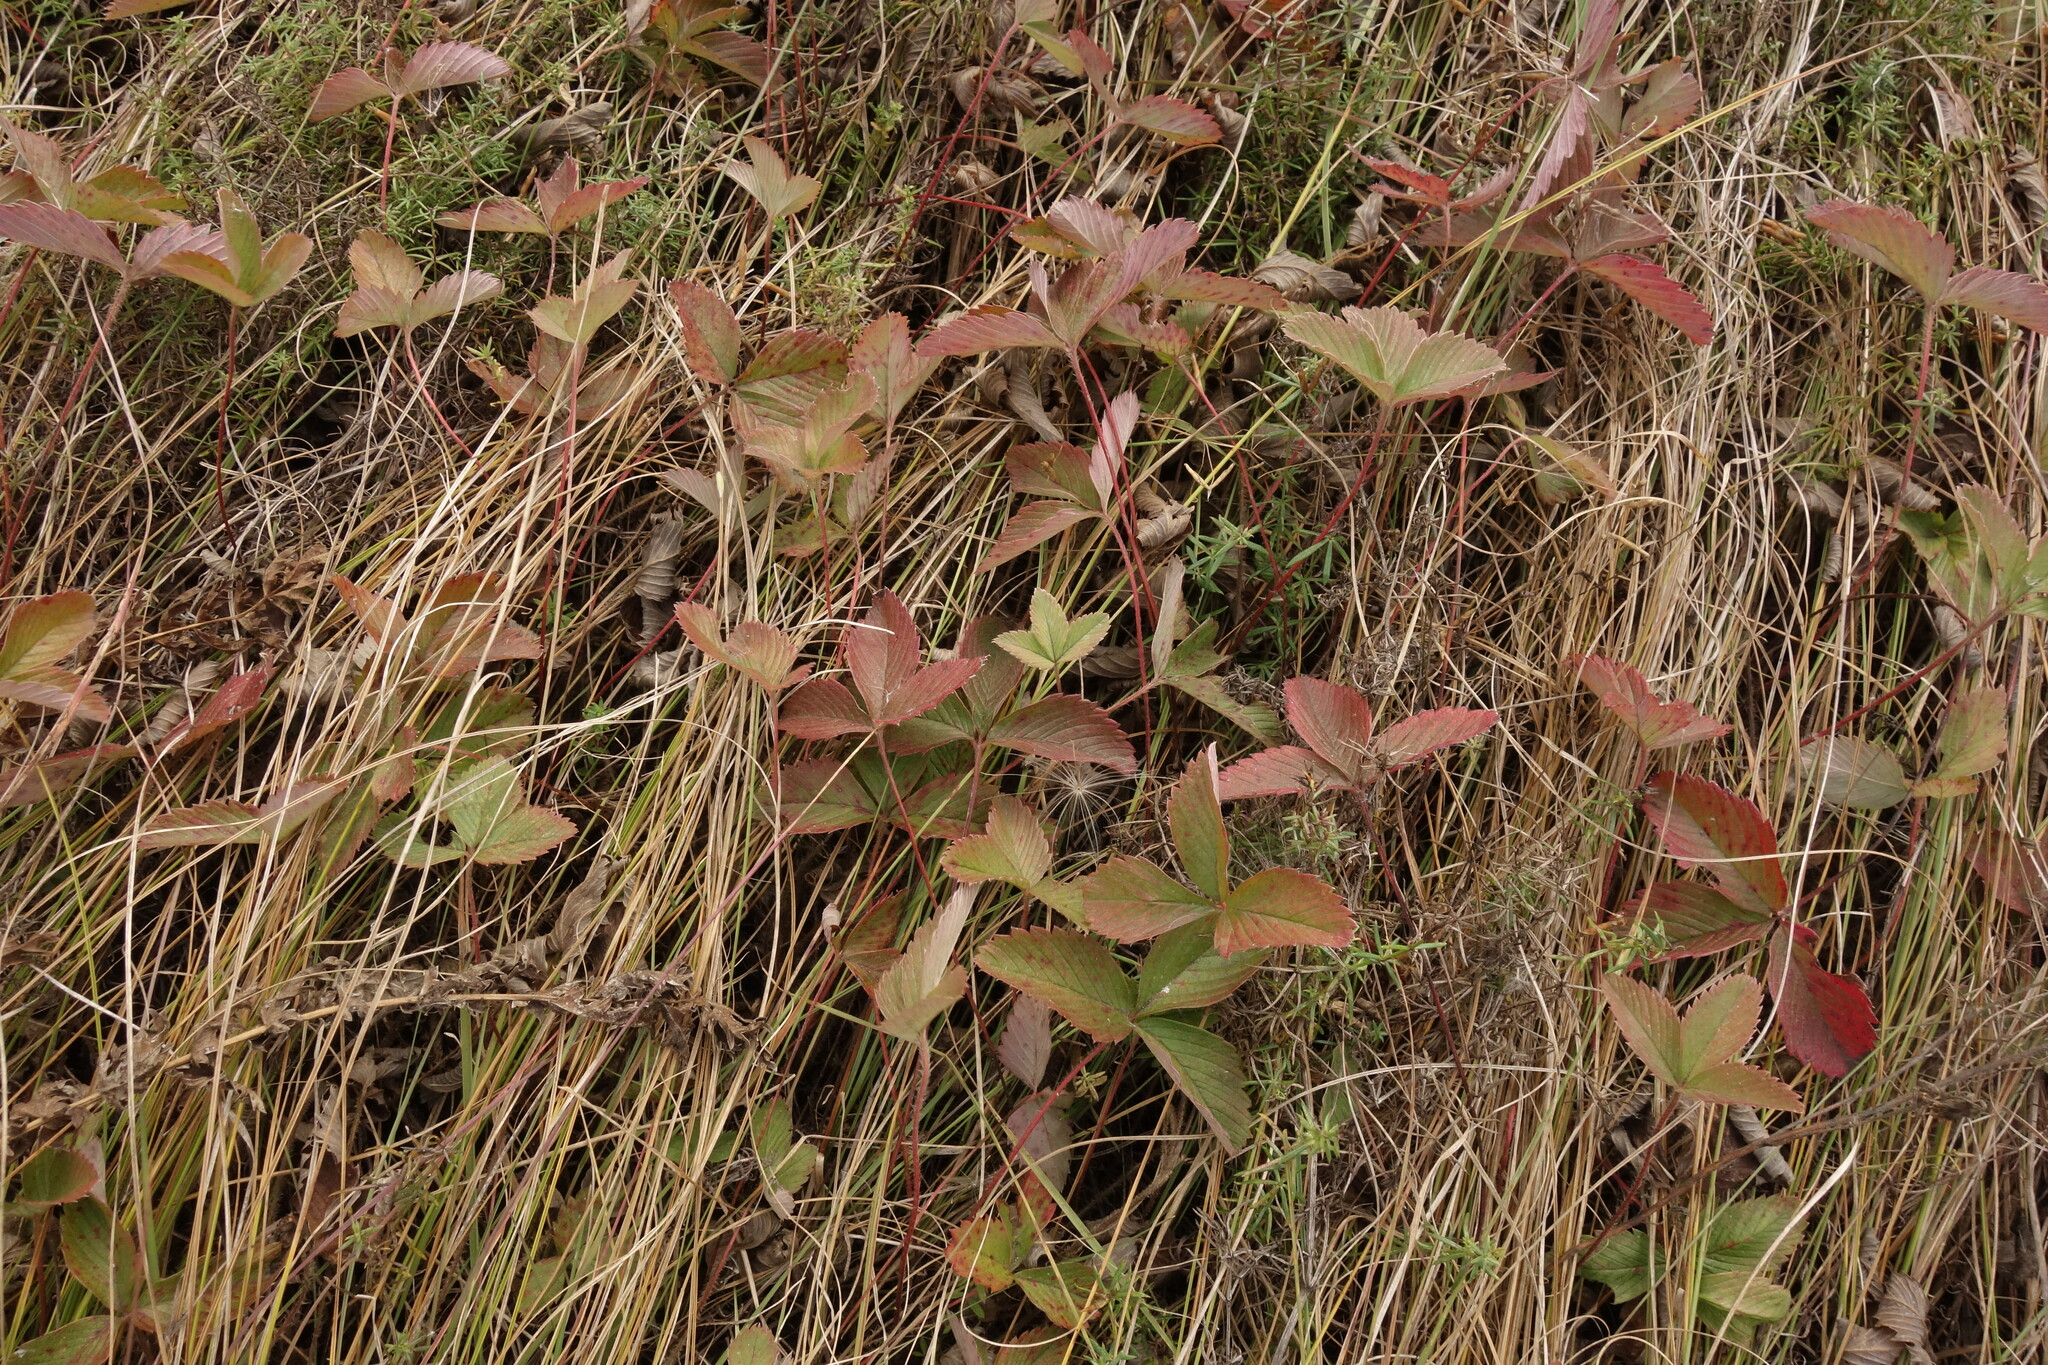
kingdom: Plantae
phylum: Tracheophyta
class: Magnoliopsida
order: Rosales
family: Rosaceae
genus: Fragaria
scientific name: Fragaria viridis
